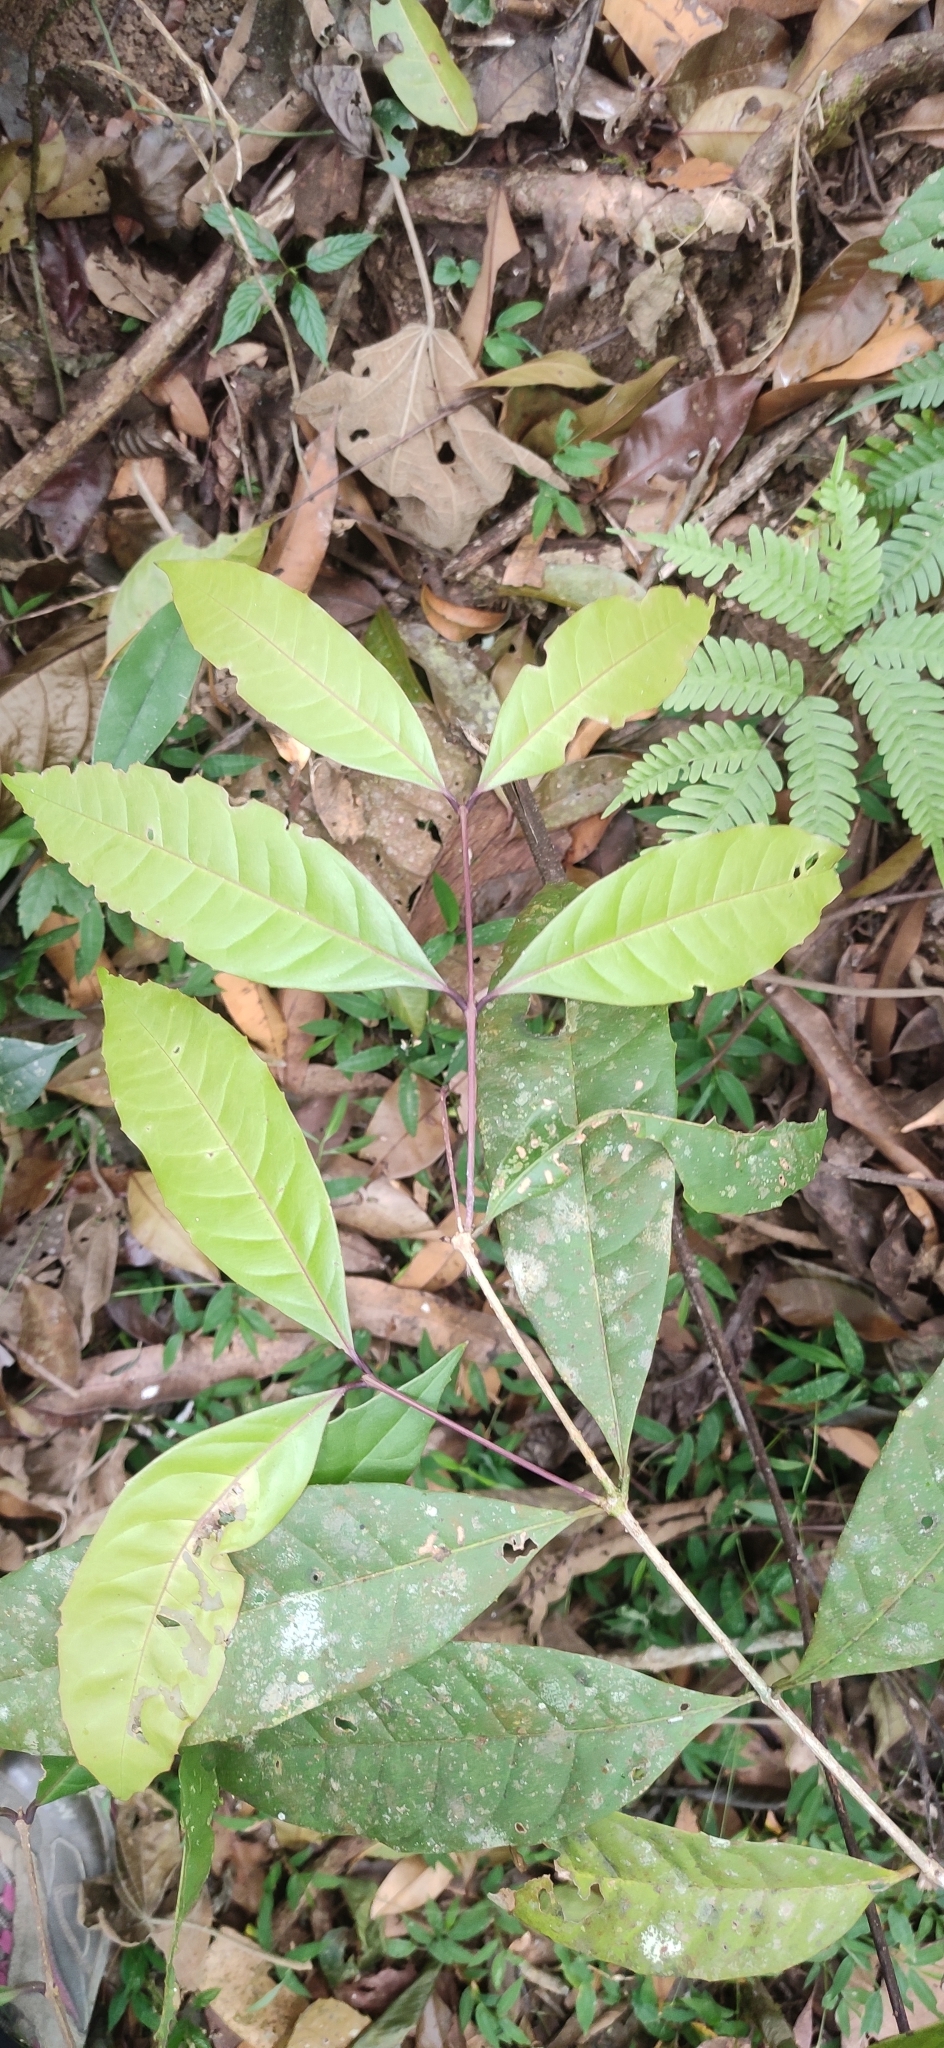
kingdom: Plantae
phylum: Tracheophyta
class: Magnoliopsida
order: Lamiales
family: Oleaceae
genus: Tetrapilus
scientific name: Tetrapilus dioicus
